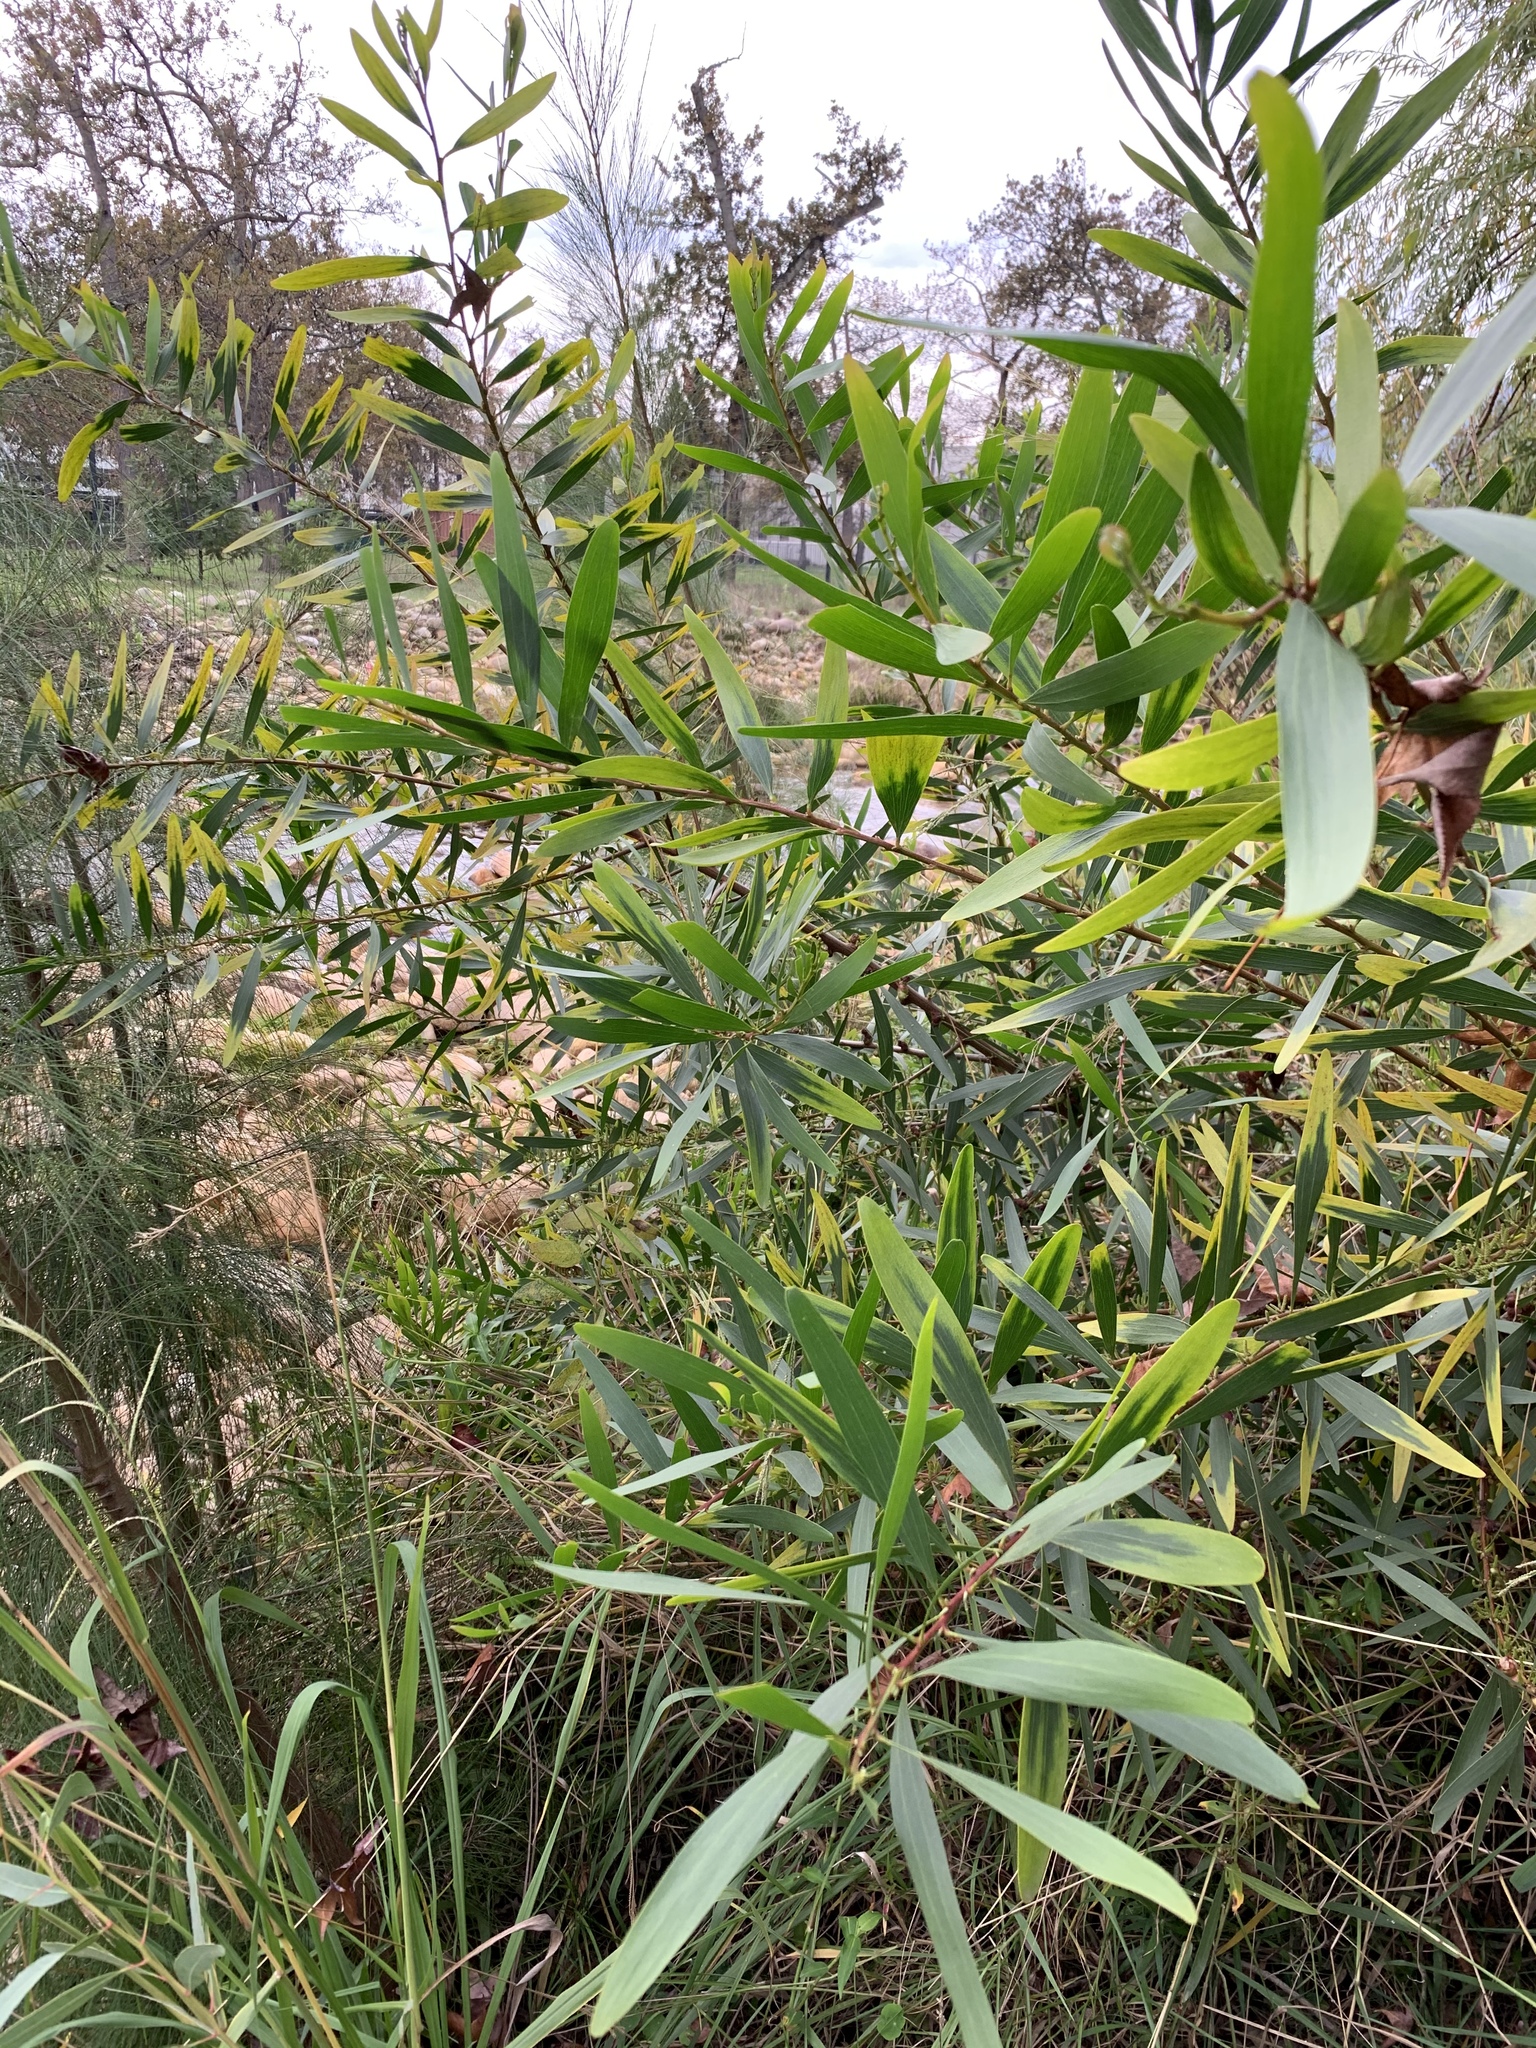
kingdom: Plantae
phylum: Tracheophyta
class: Magnoliopsida
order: Fabales
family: Fabaceae
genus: Acacia
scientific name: Acacia longifolia
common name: Sydney golden wattle
